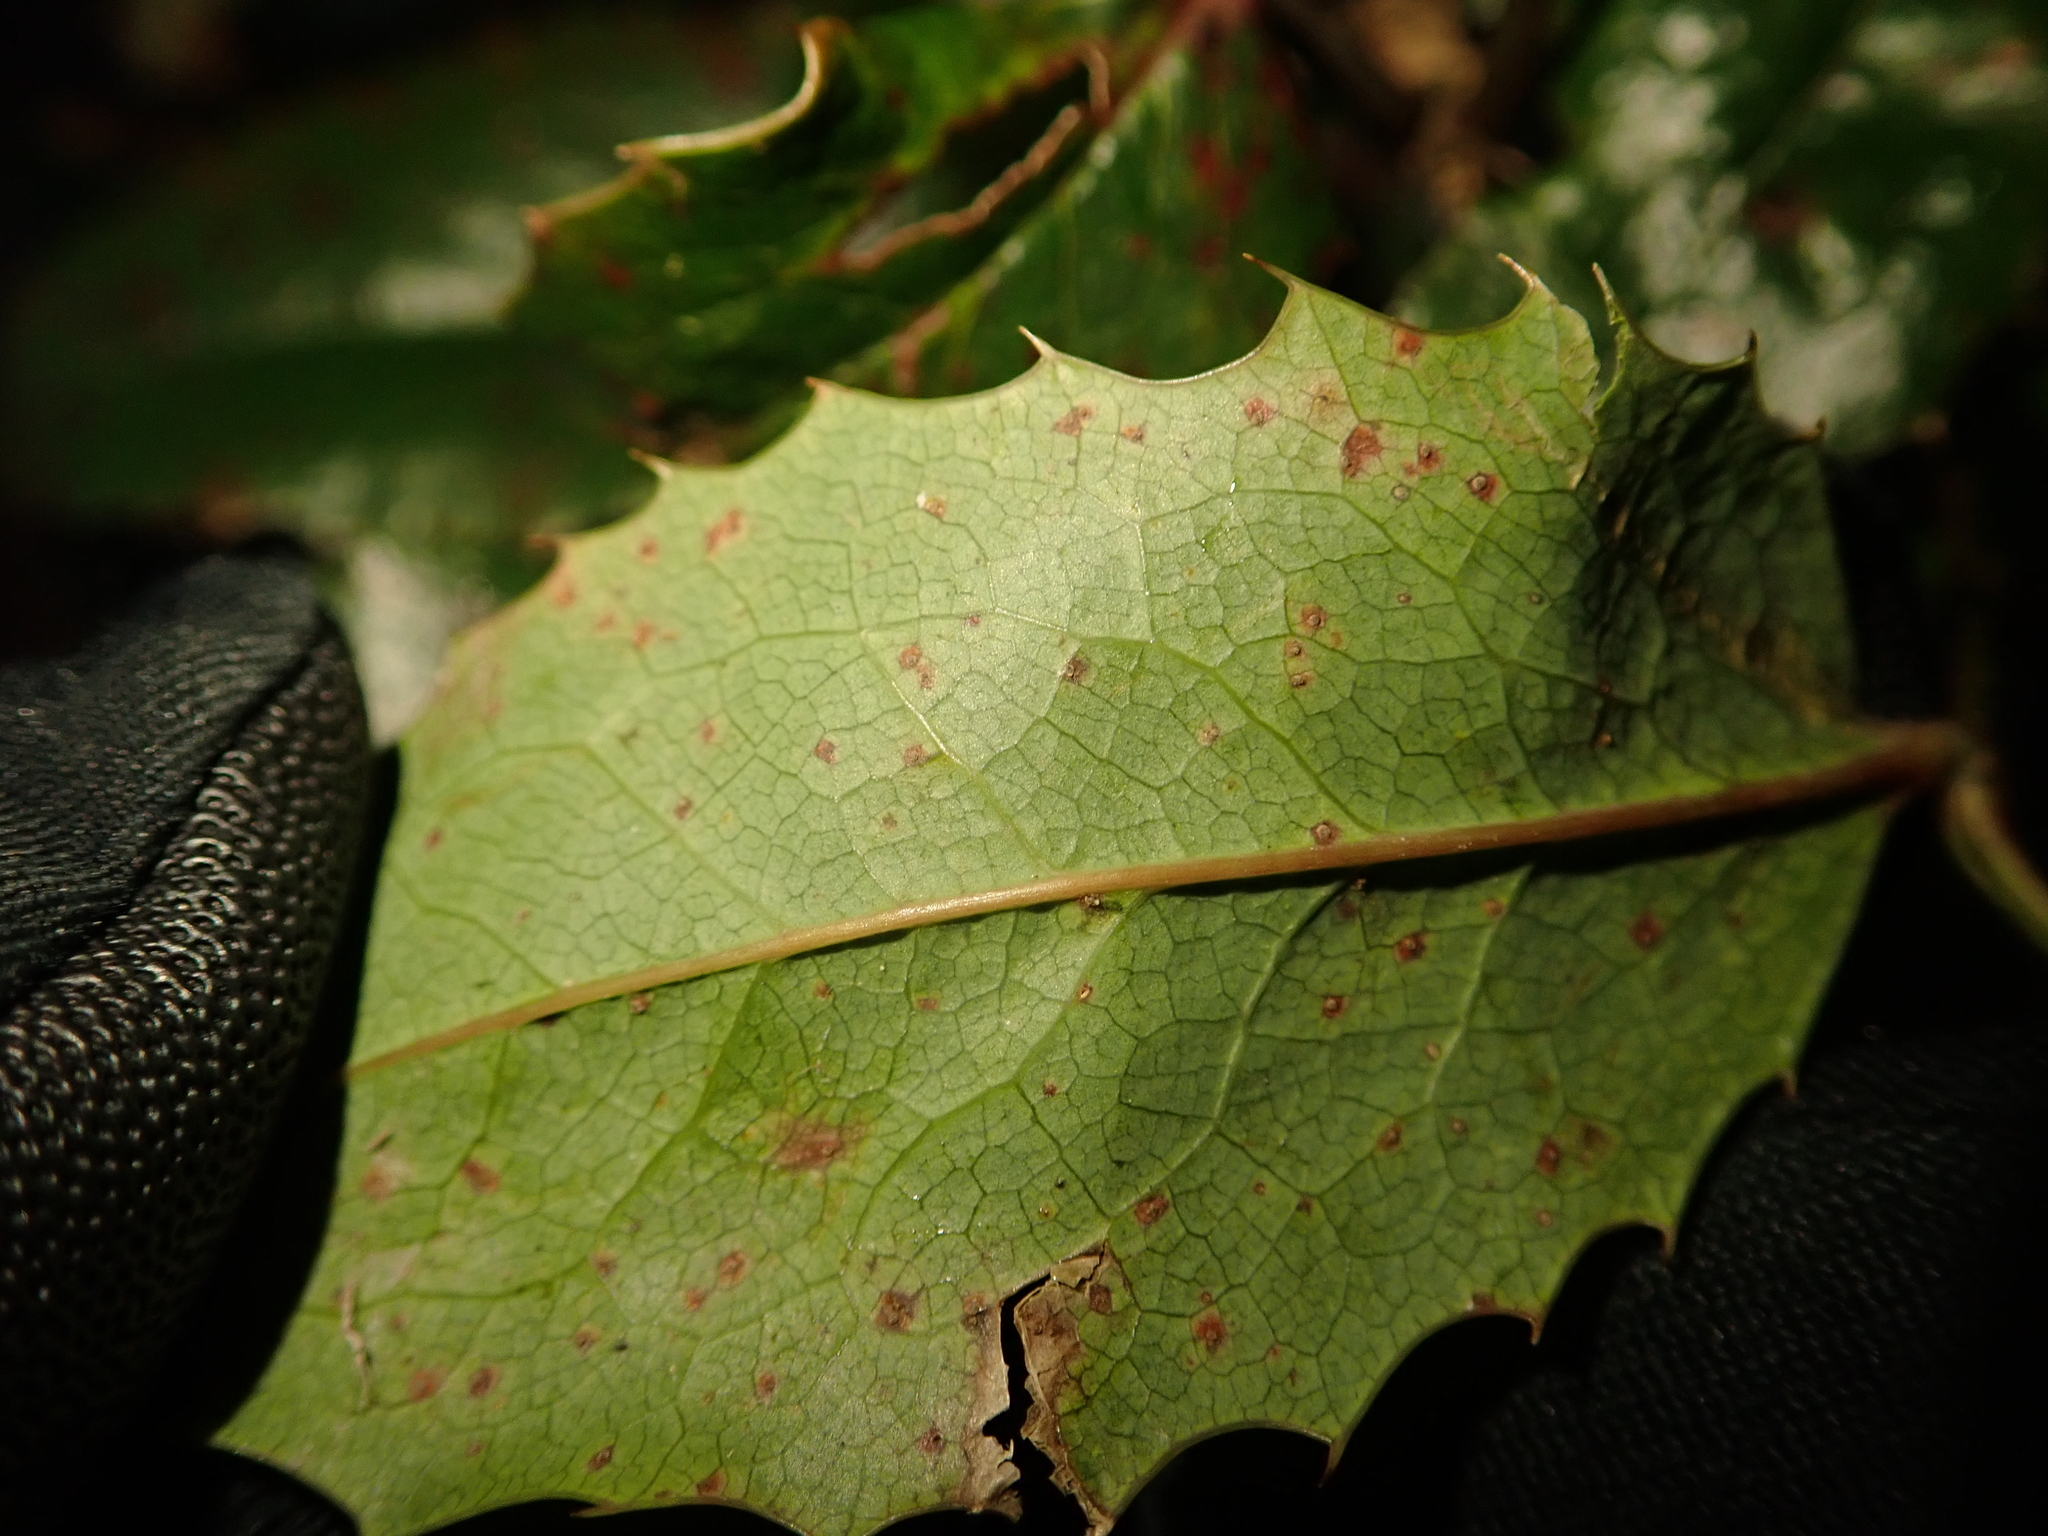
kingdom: Fungi
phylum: Basidiomycota
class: Pucciniomycetes
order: Pucciniales
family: Pucciniaceae
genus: Cumminsiella
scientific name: Cumminsiella mirabilissima
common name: Mahonia rust
